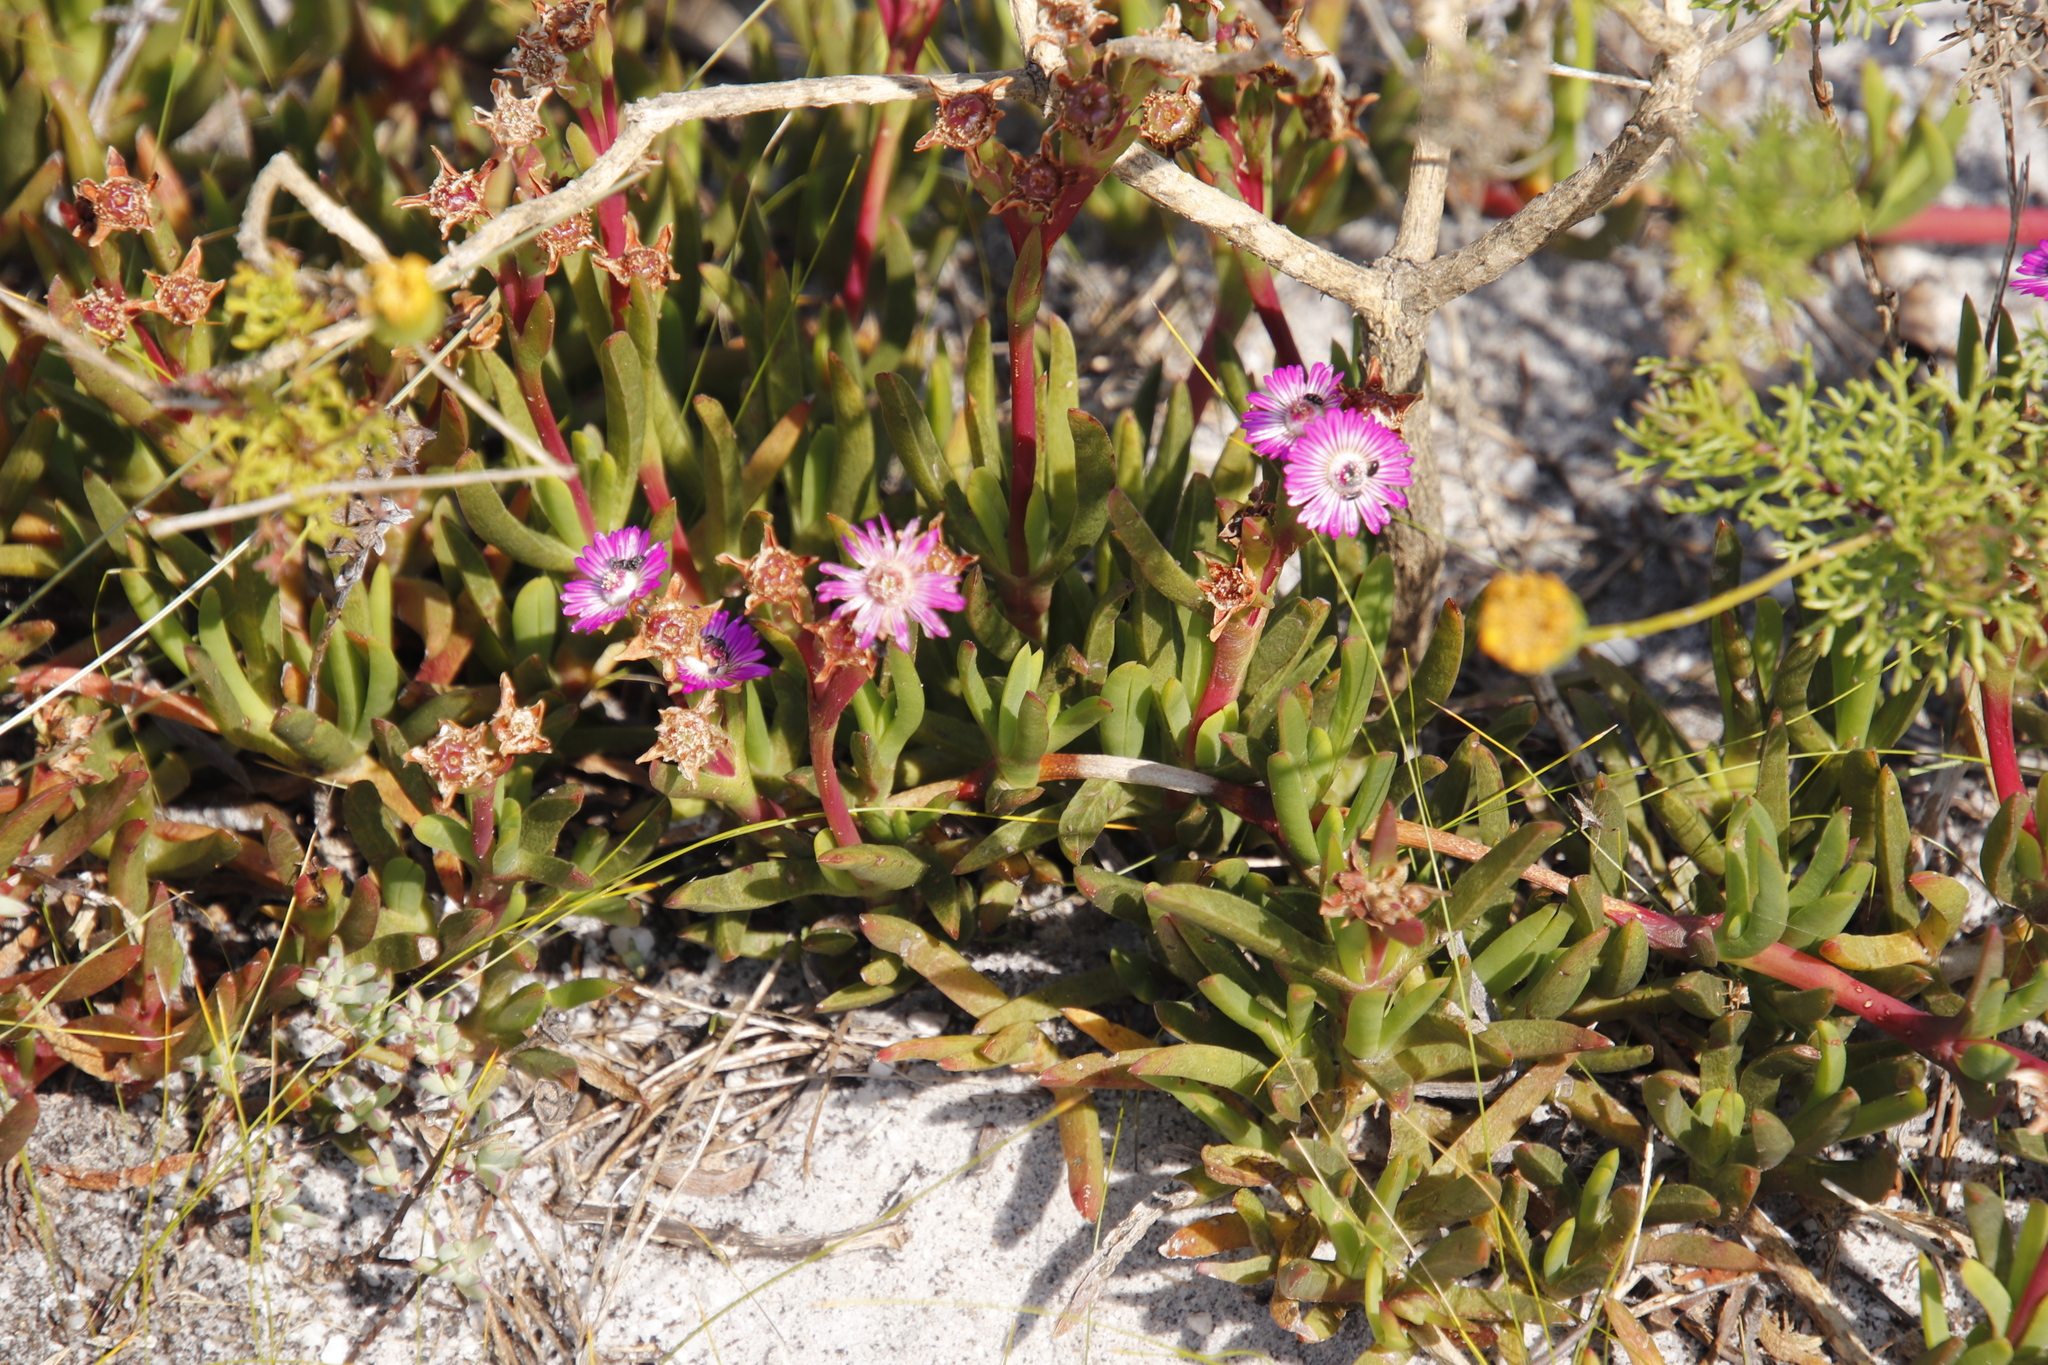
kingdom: Plantae
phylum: Tracheophyta
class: Magnoliopsida
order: Caryophyllales
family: Aizoaceae
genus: Ruschia
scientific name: Ruschia sarmentosa
